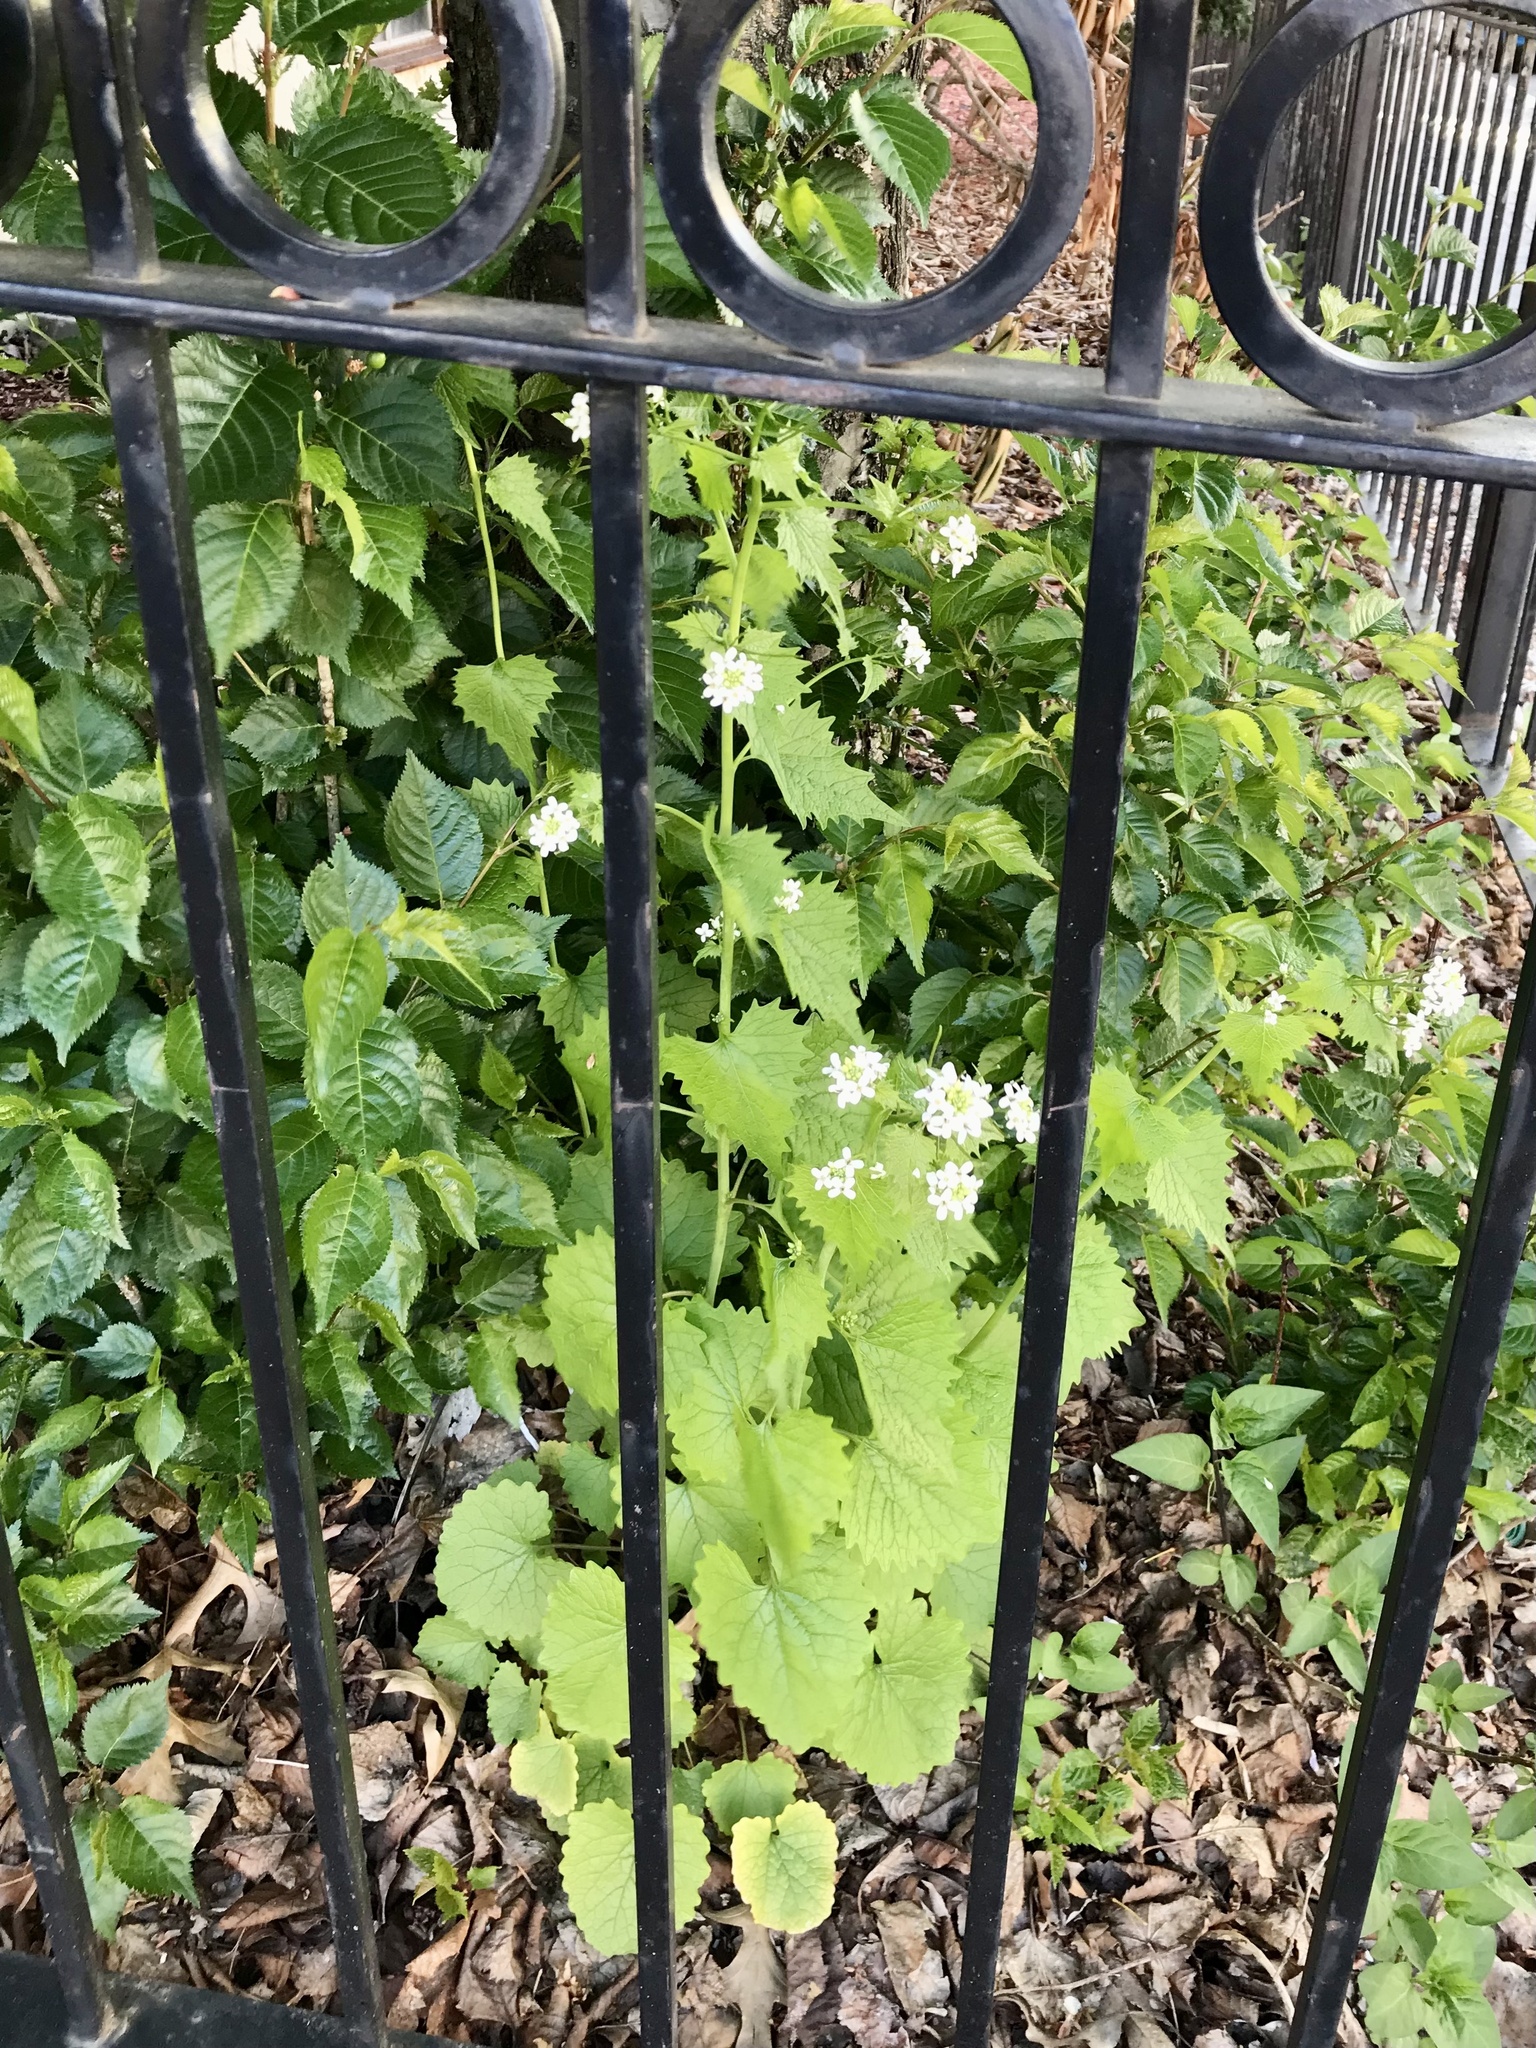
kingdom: Plantae
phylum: Tracheophyta
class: Magnoliopsida
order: Brassicales
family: Brassicaceae
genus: Alliaria
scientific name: Alliaria petiolata
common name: Garlic mustard
